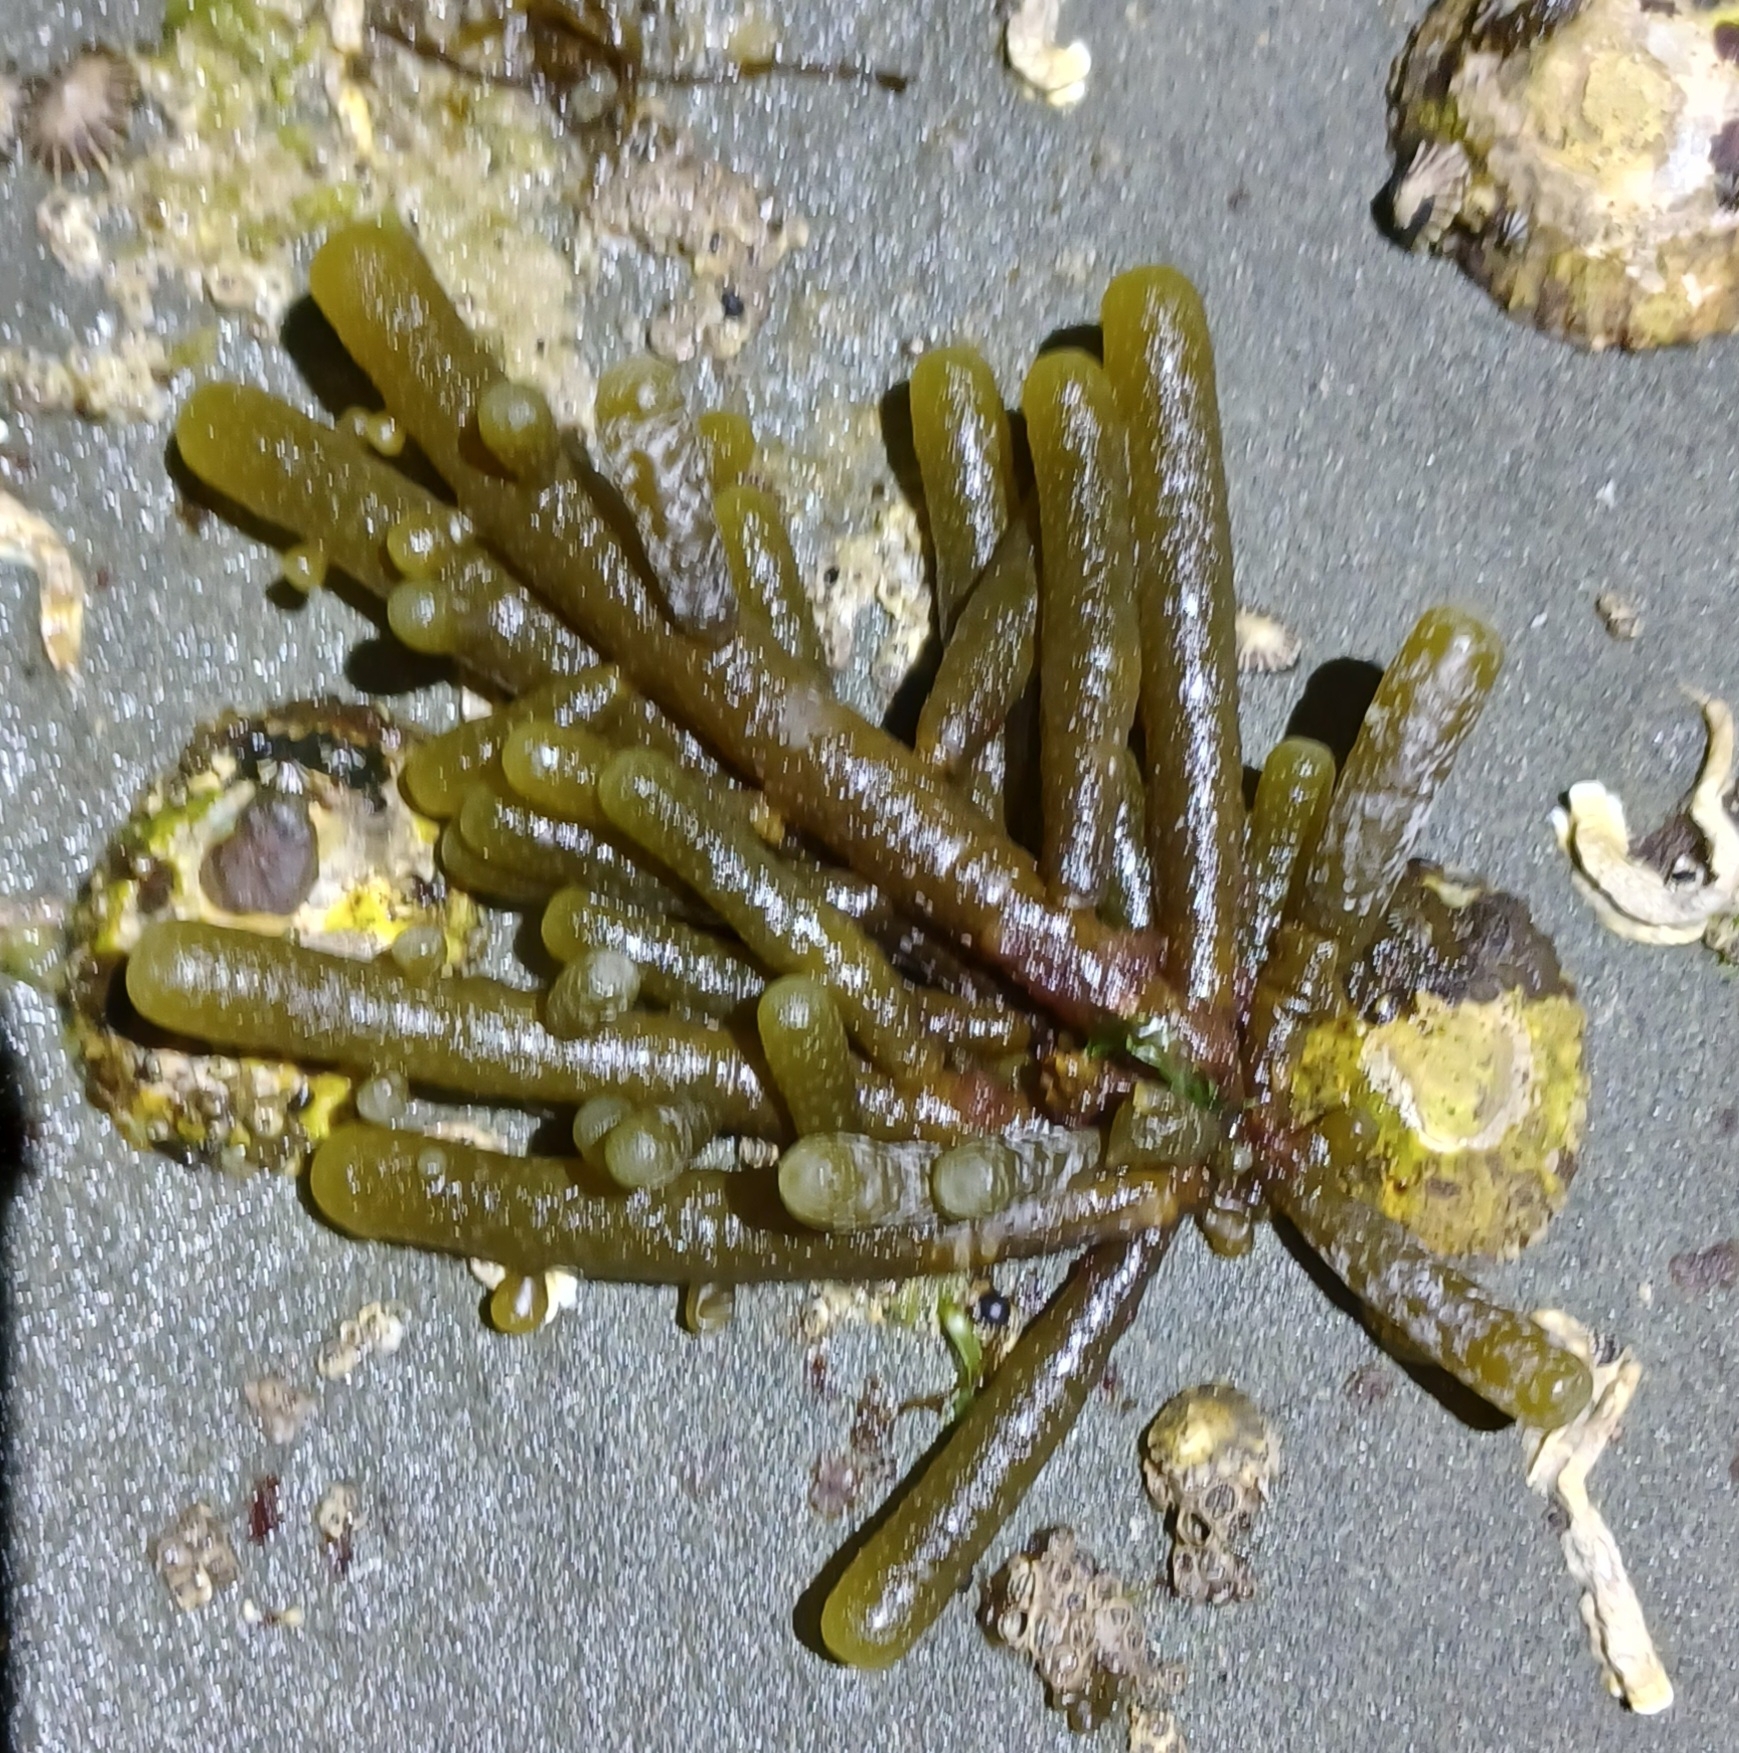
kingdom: Chromista
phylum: Ochrophyta
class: Phaeophyceae
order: Scytothamnales
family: Splachnidiaceae
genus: Splachnidium
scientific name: Splachnidium rugosum
